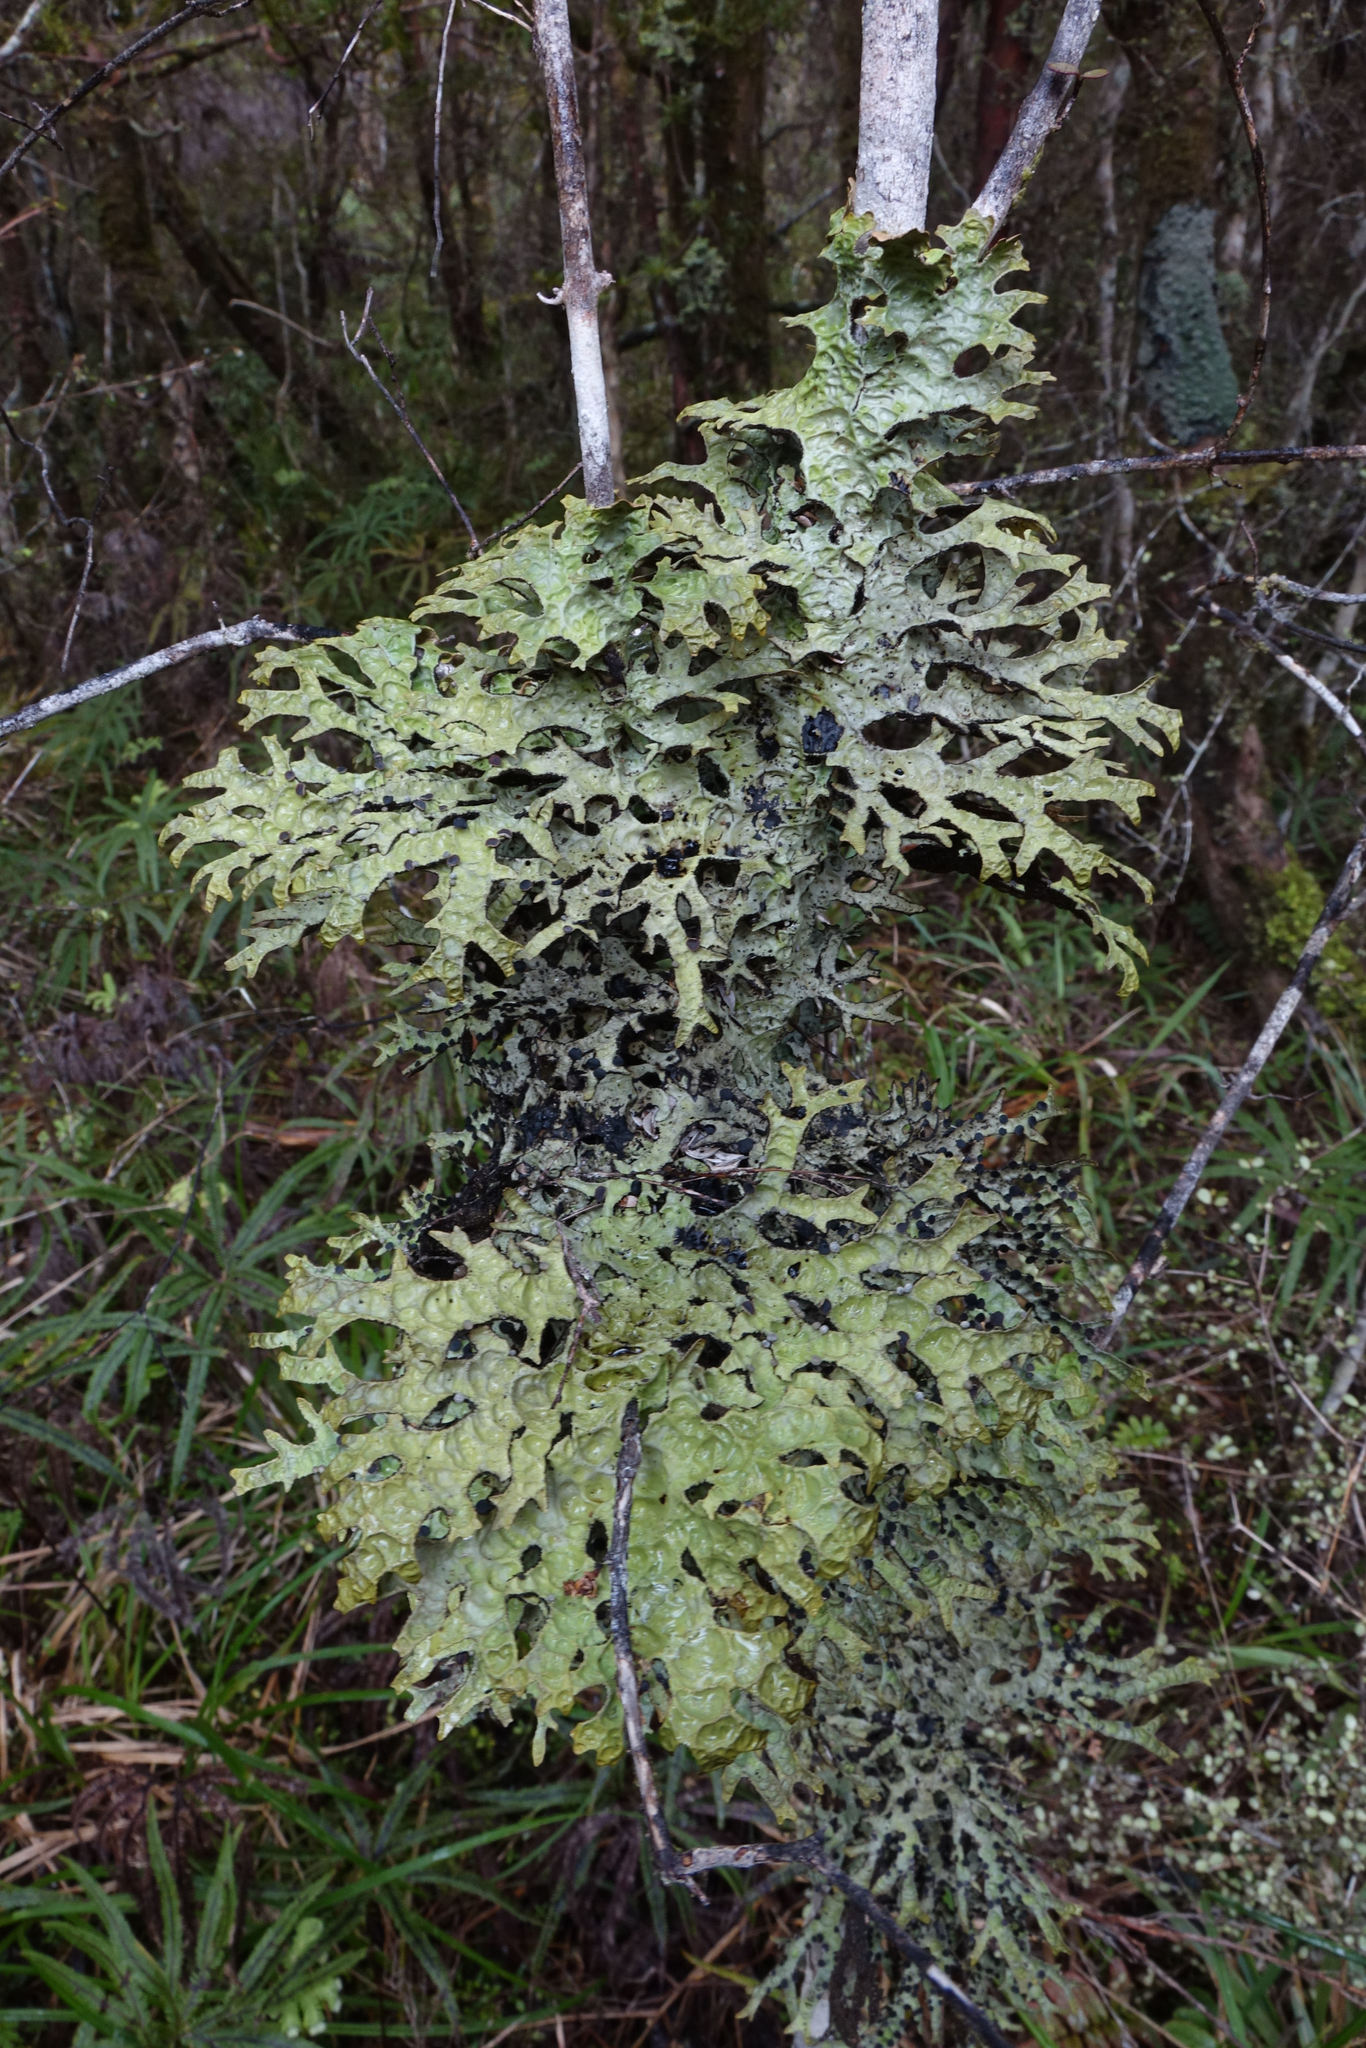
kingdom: Fungi
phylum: Ascomycota
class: Lecanoromycetes
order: Peltigerales
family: Lobariaceae
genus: Pseudocyphellaria
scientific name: Pseudocyphellaria billardierei
